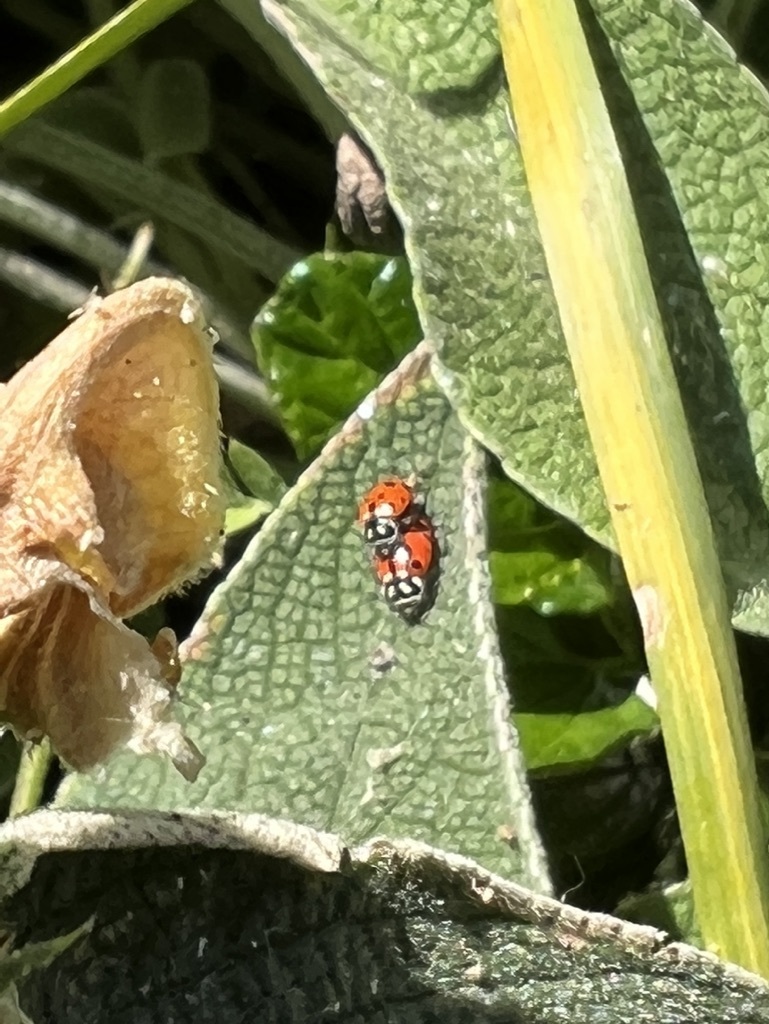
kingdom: Animalia
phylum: Arthropoda
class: Insecta
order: Coleoptera
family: Coccinellidae
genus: Hippodamia
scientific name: Hippodamia convergens
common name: Convergent lady beetle
